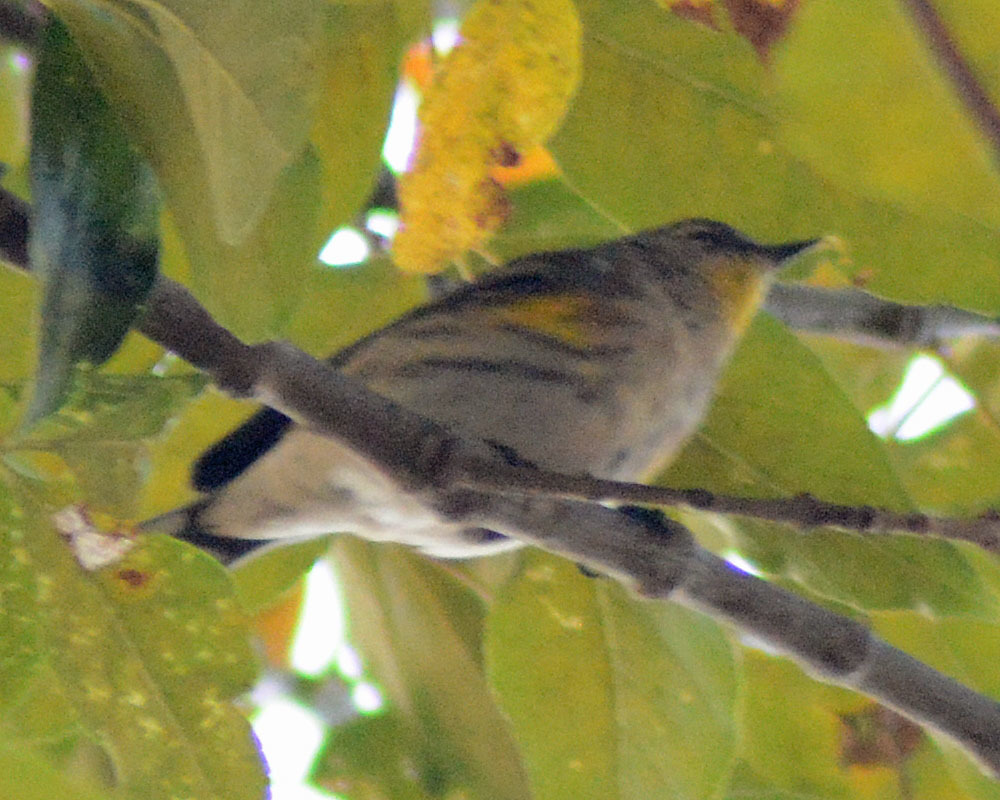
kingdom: Animalia
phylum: Chordata
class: Aves
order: Passeriformes
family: Parulidae
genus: Setophaga
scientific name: Setophaga coronata
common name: Myrtle warbler
